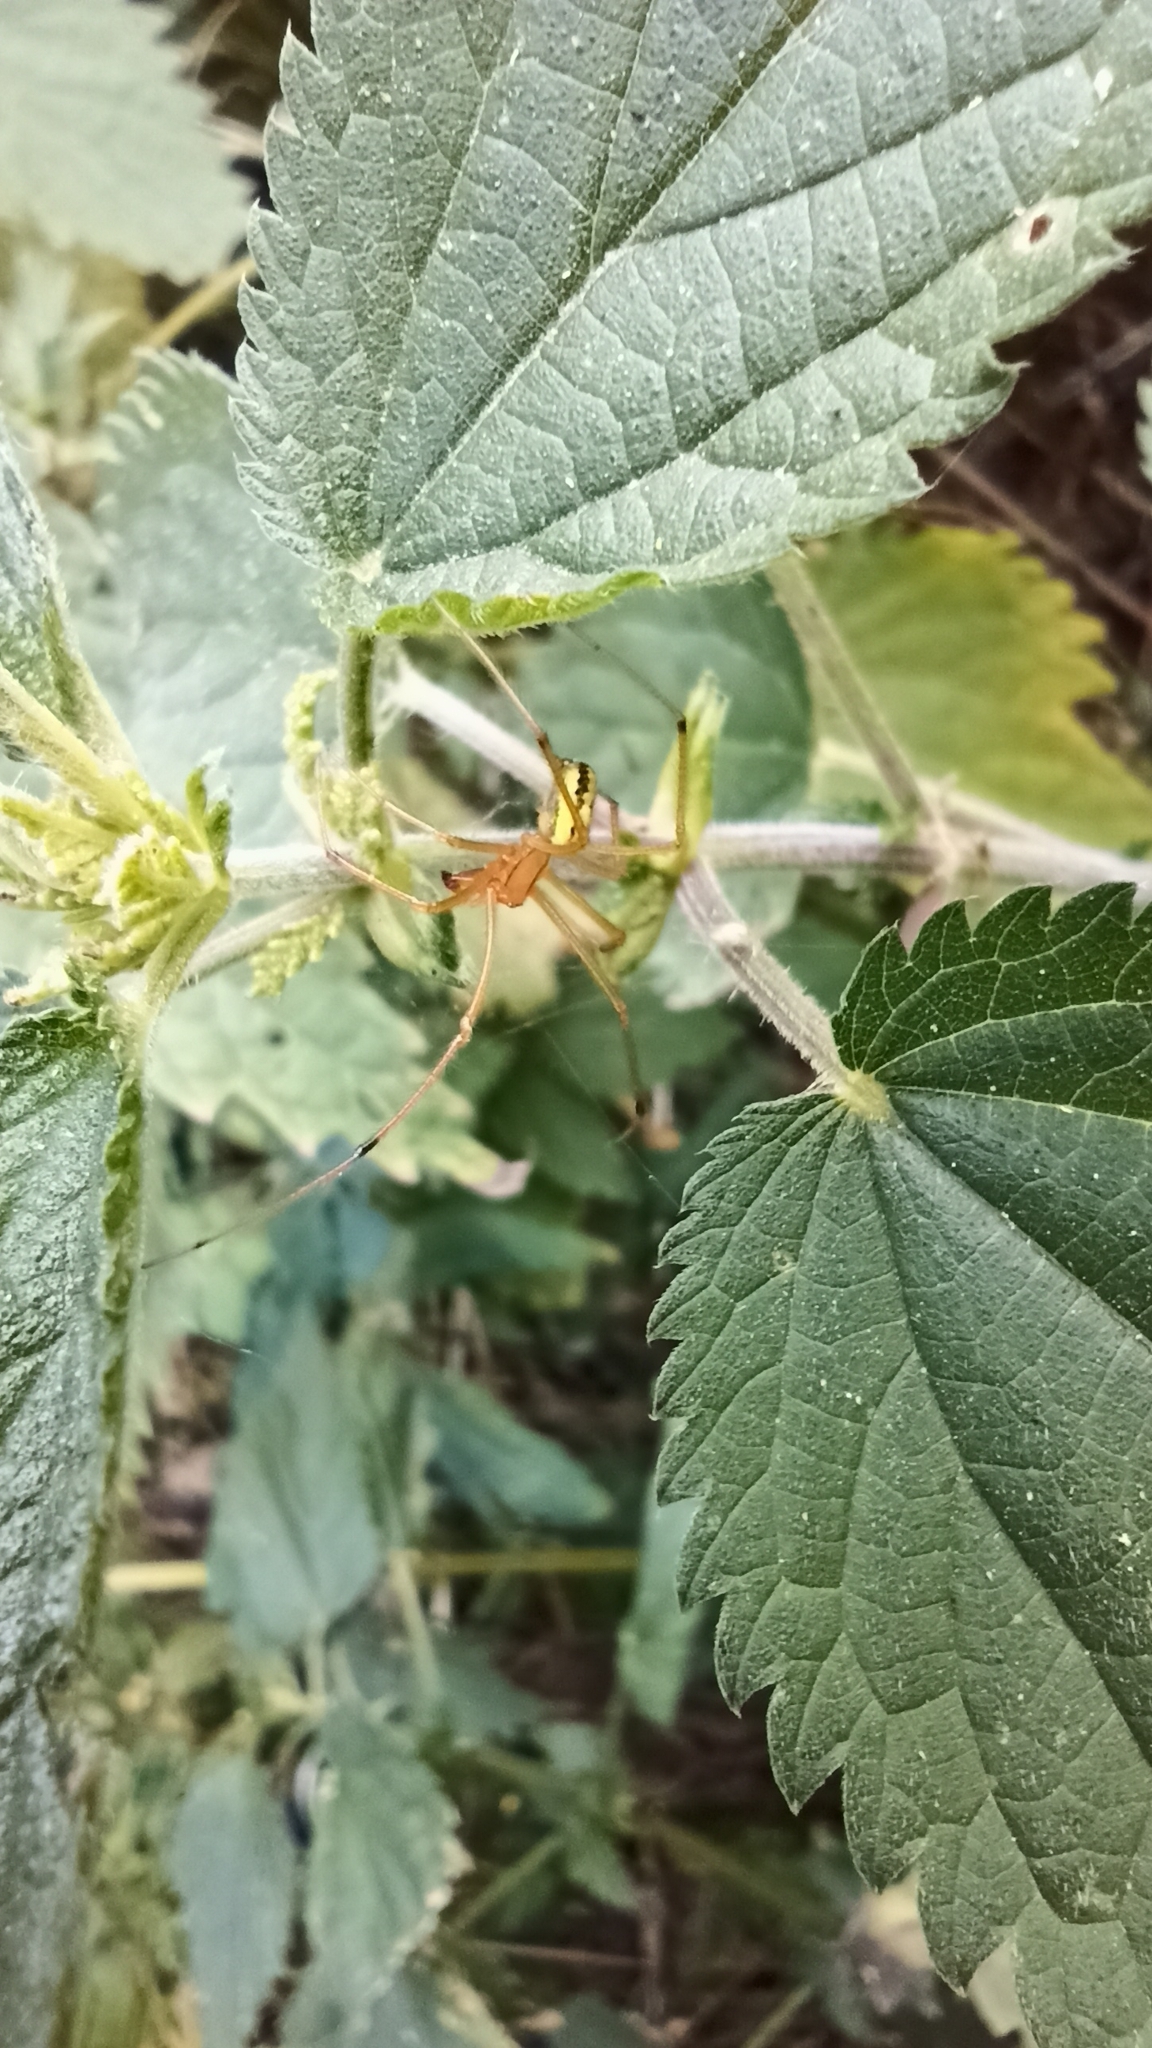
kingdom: Animalia
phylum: Arthropoda
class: Arachnida
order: Araneae
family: Theridiidae
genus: Enoplognatha
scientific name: Enoplognatha ovata
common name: Common candy-striped spider
